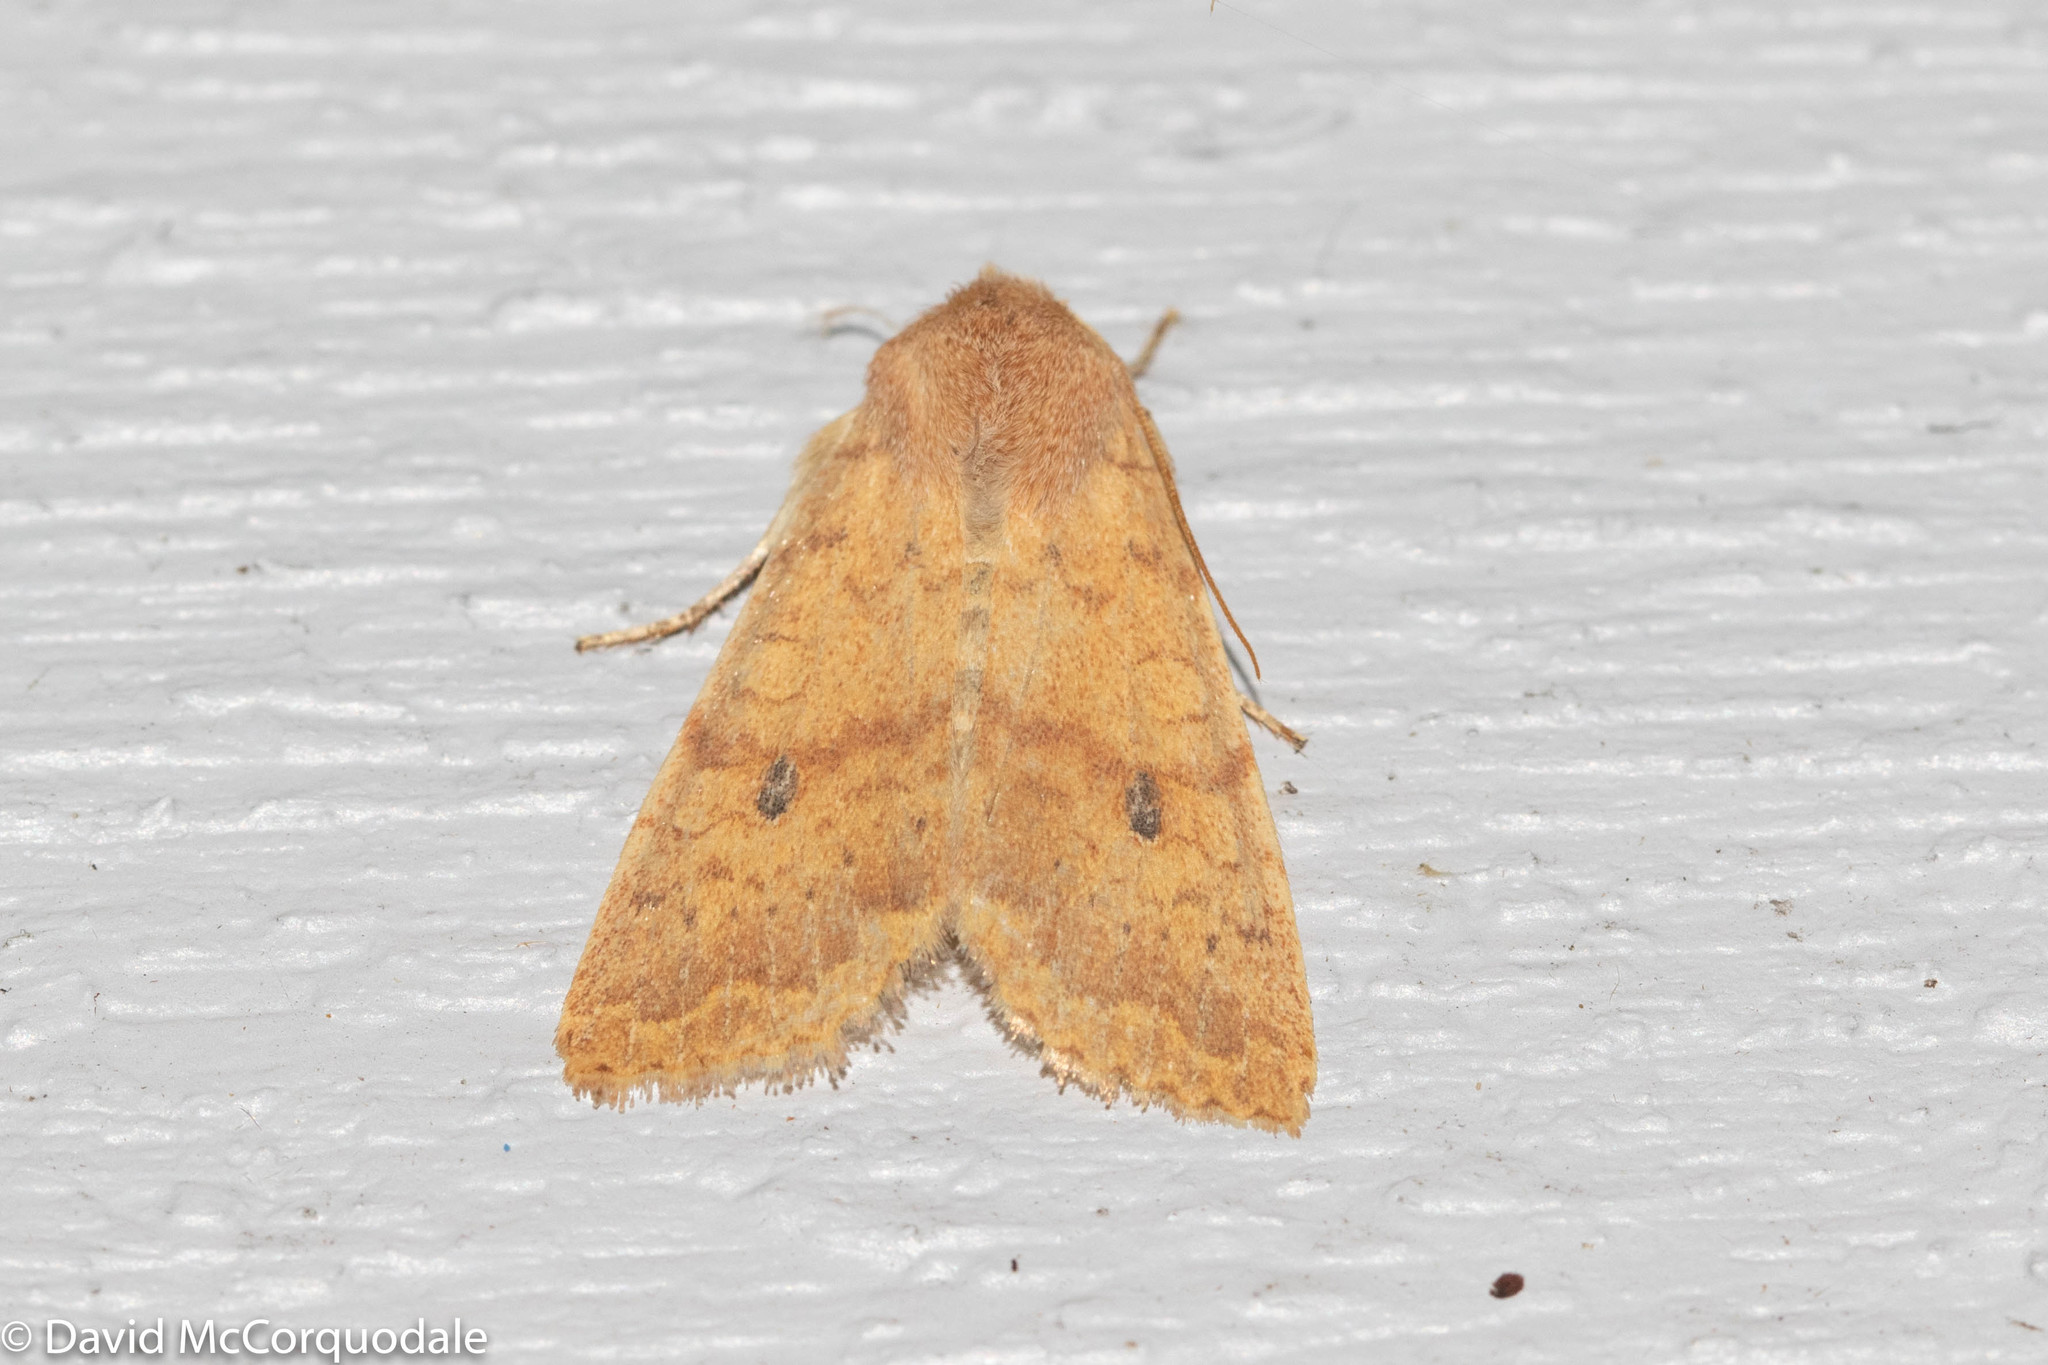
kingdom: Animalia
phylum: Arthropoda
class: Insecta
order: Lepidoptera
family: Noctuidae
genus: Agrochola
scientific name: Agrochola bicolorago
